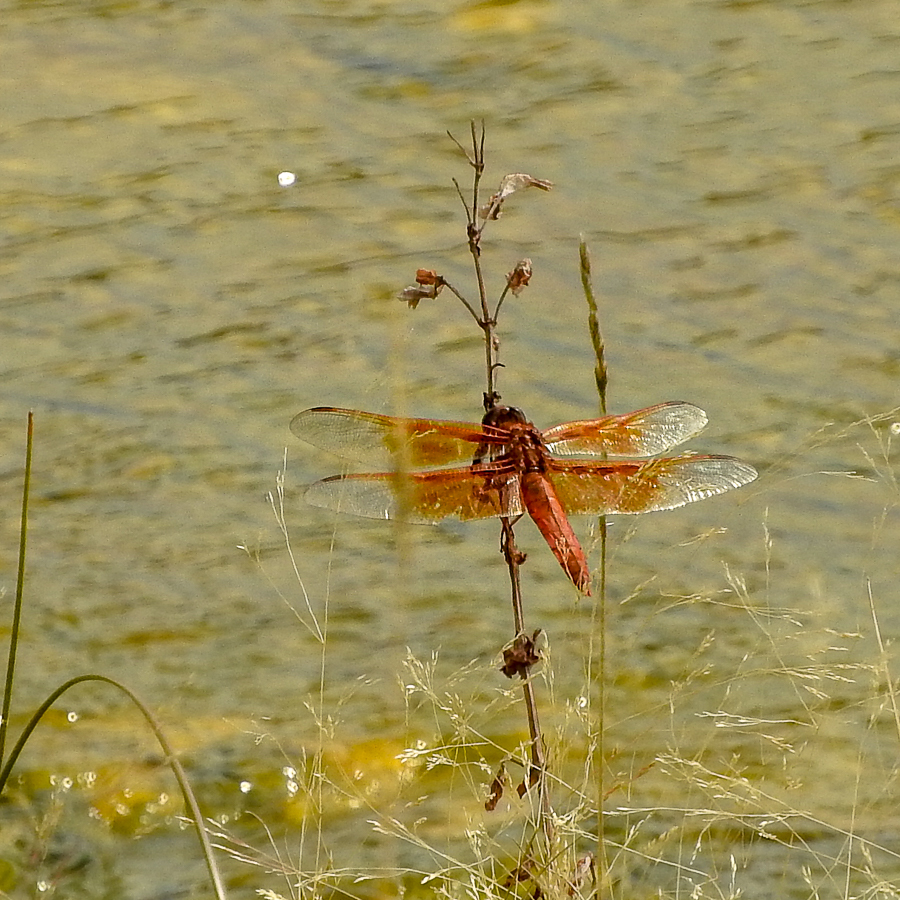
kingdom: Animalia
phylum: Arthropoda
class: Insecta
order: Odonata
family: Libellulidae
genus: Libellula
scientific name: Libellula saturata
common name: Flame skimmer
